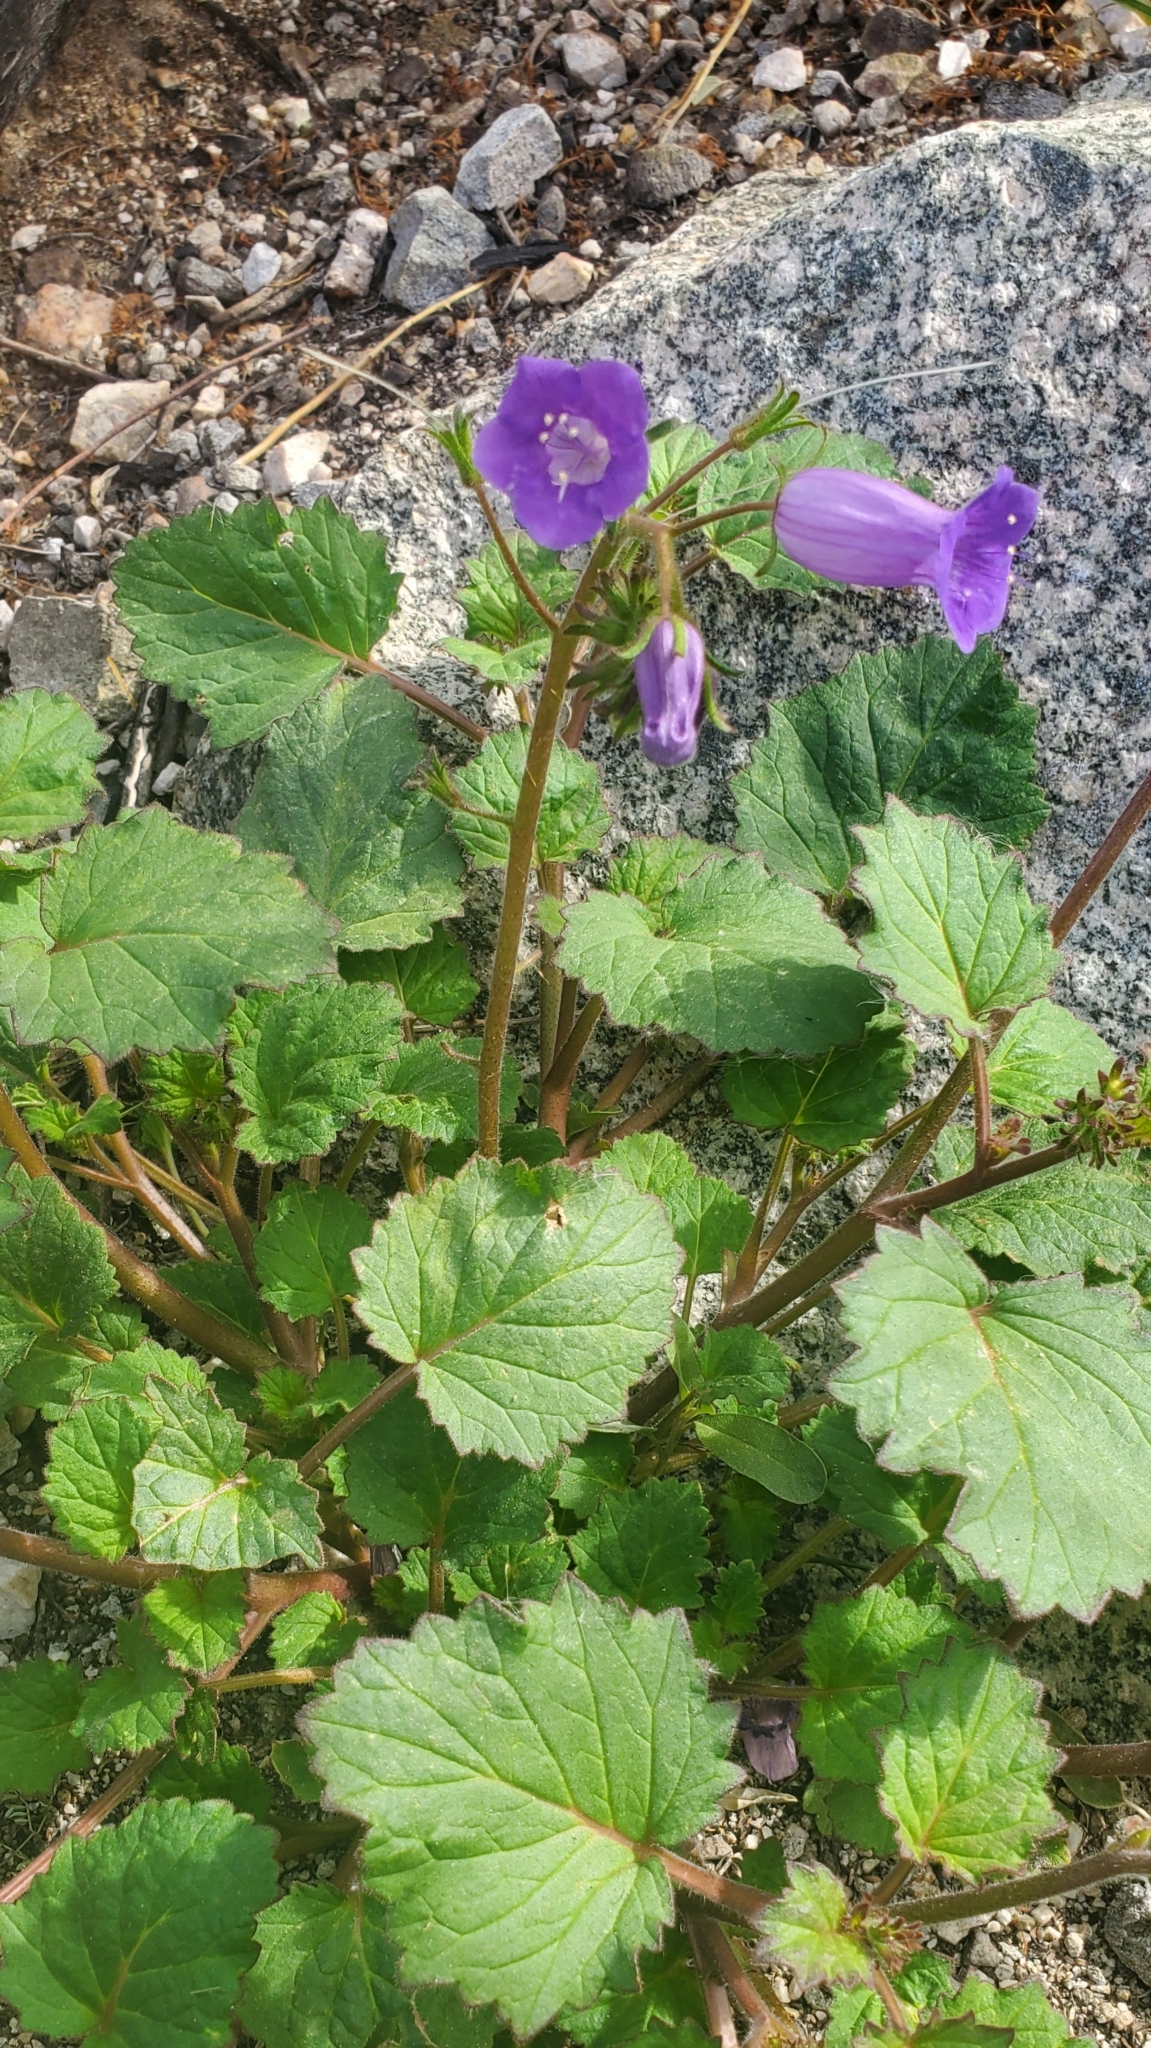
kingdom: Plantae
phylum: Tracheophyta
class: Magnoliopsida
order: Boraginales
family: Hydrophyllaceae
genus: Phacelia
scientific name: Phacelia minor
